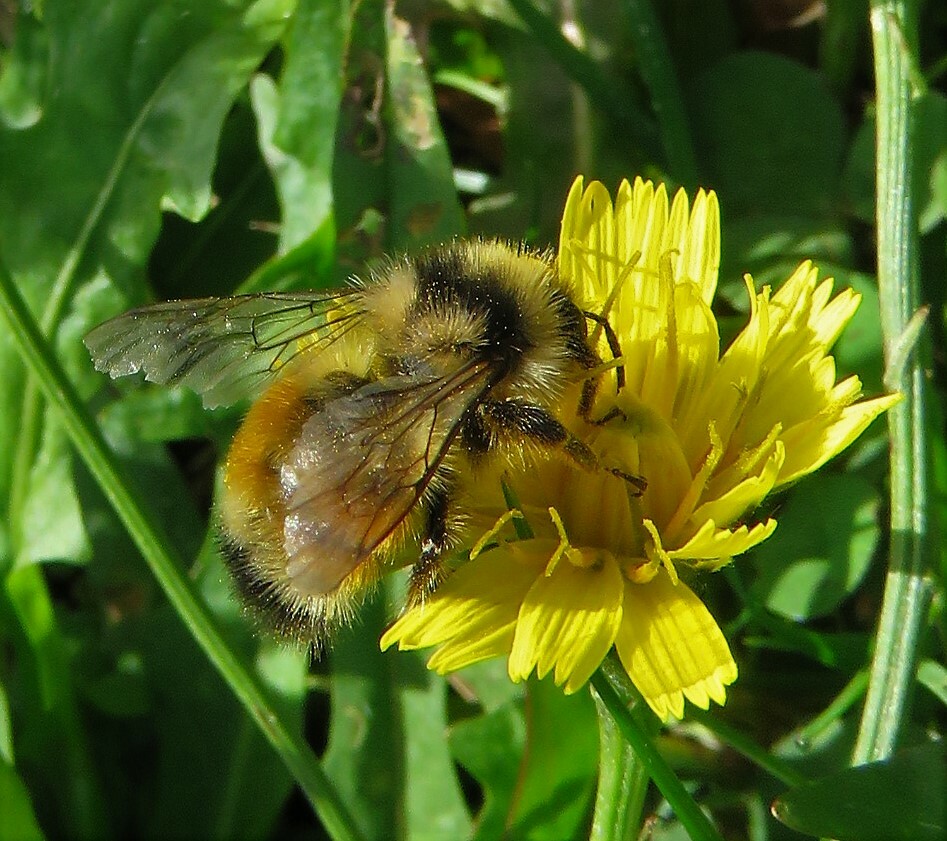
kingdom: Animalia
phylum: Arthropoda
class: Insecta
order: Hymenoptera
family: Apidae
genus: Bombus
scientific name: Bombus ternarius
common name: Tri-colored bumble bee
